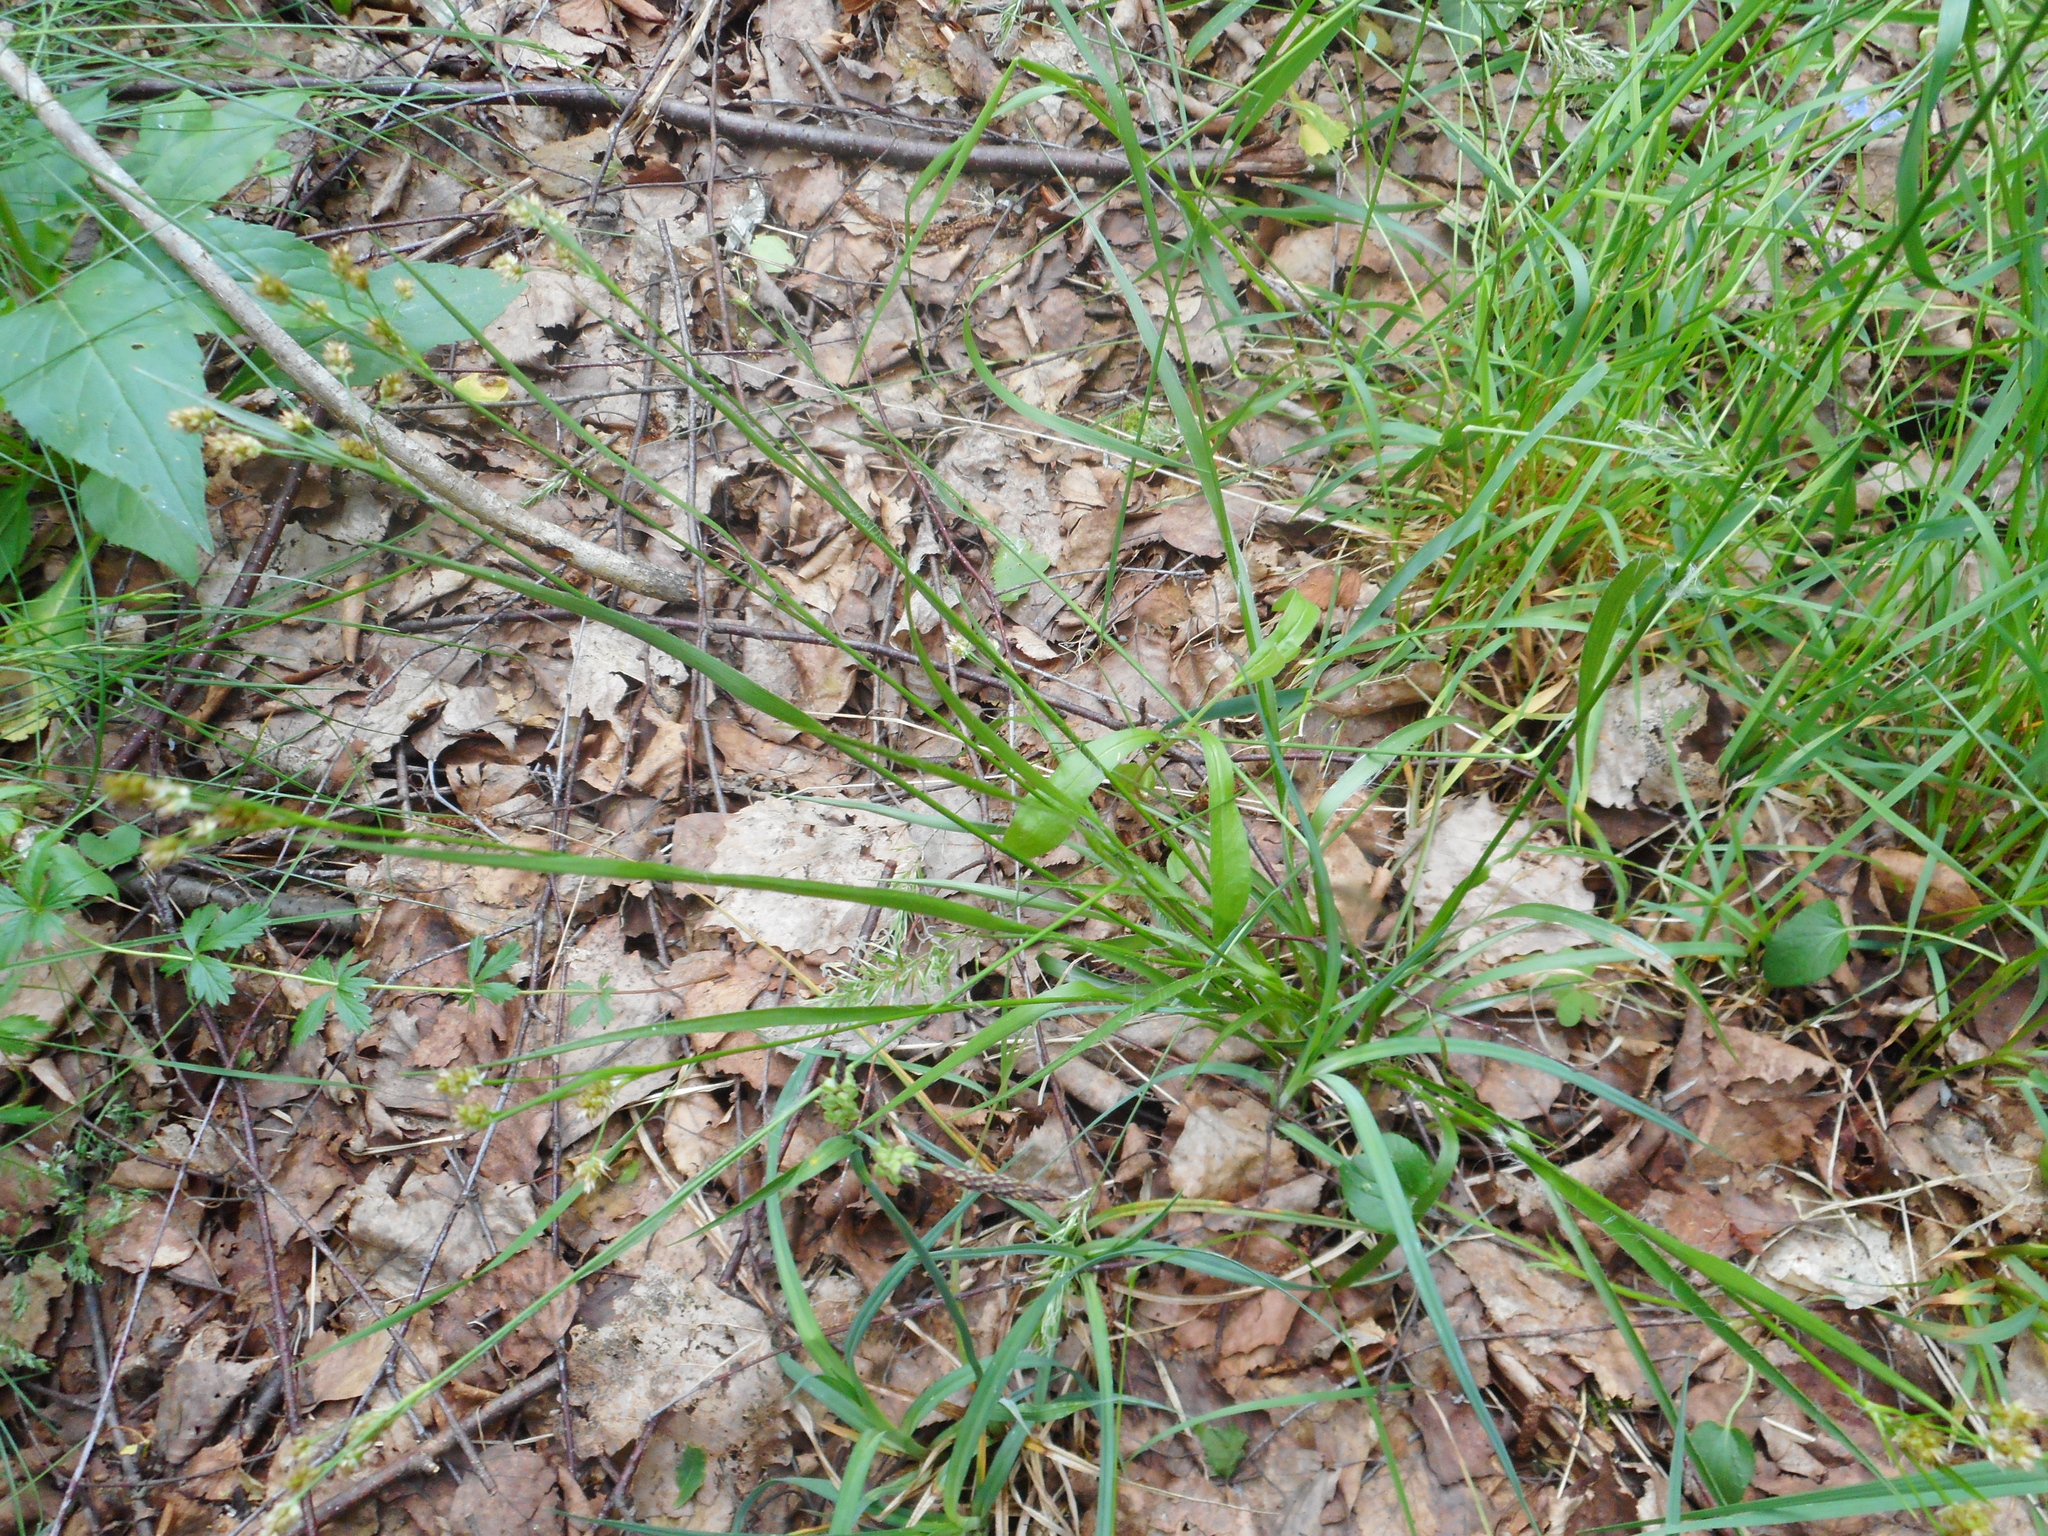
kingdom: Plantae
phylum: Tracheophyta
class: Liliopsida
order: Poales
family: Juncaceae
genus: Luzula
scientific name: Luzula multiflora
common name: Heath wood-rush
